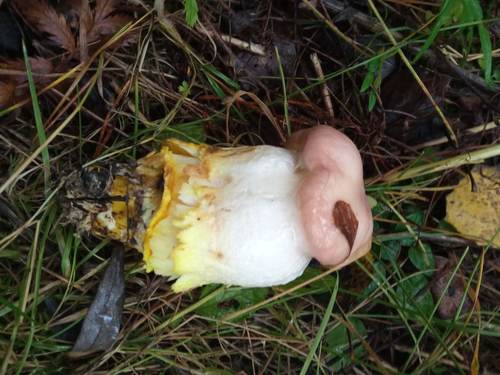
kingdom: Fungi
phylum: Basidiomycota
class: Agaricomycetes
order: Boletales
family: Gomphidiaceae
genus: Gomphidius
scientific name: Gomphidius glutinosus
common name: Slimy spike
